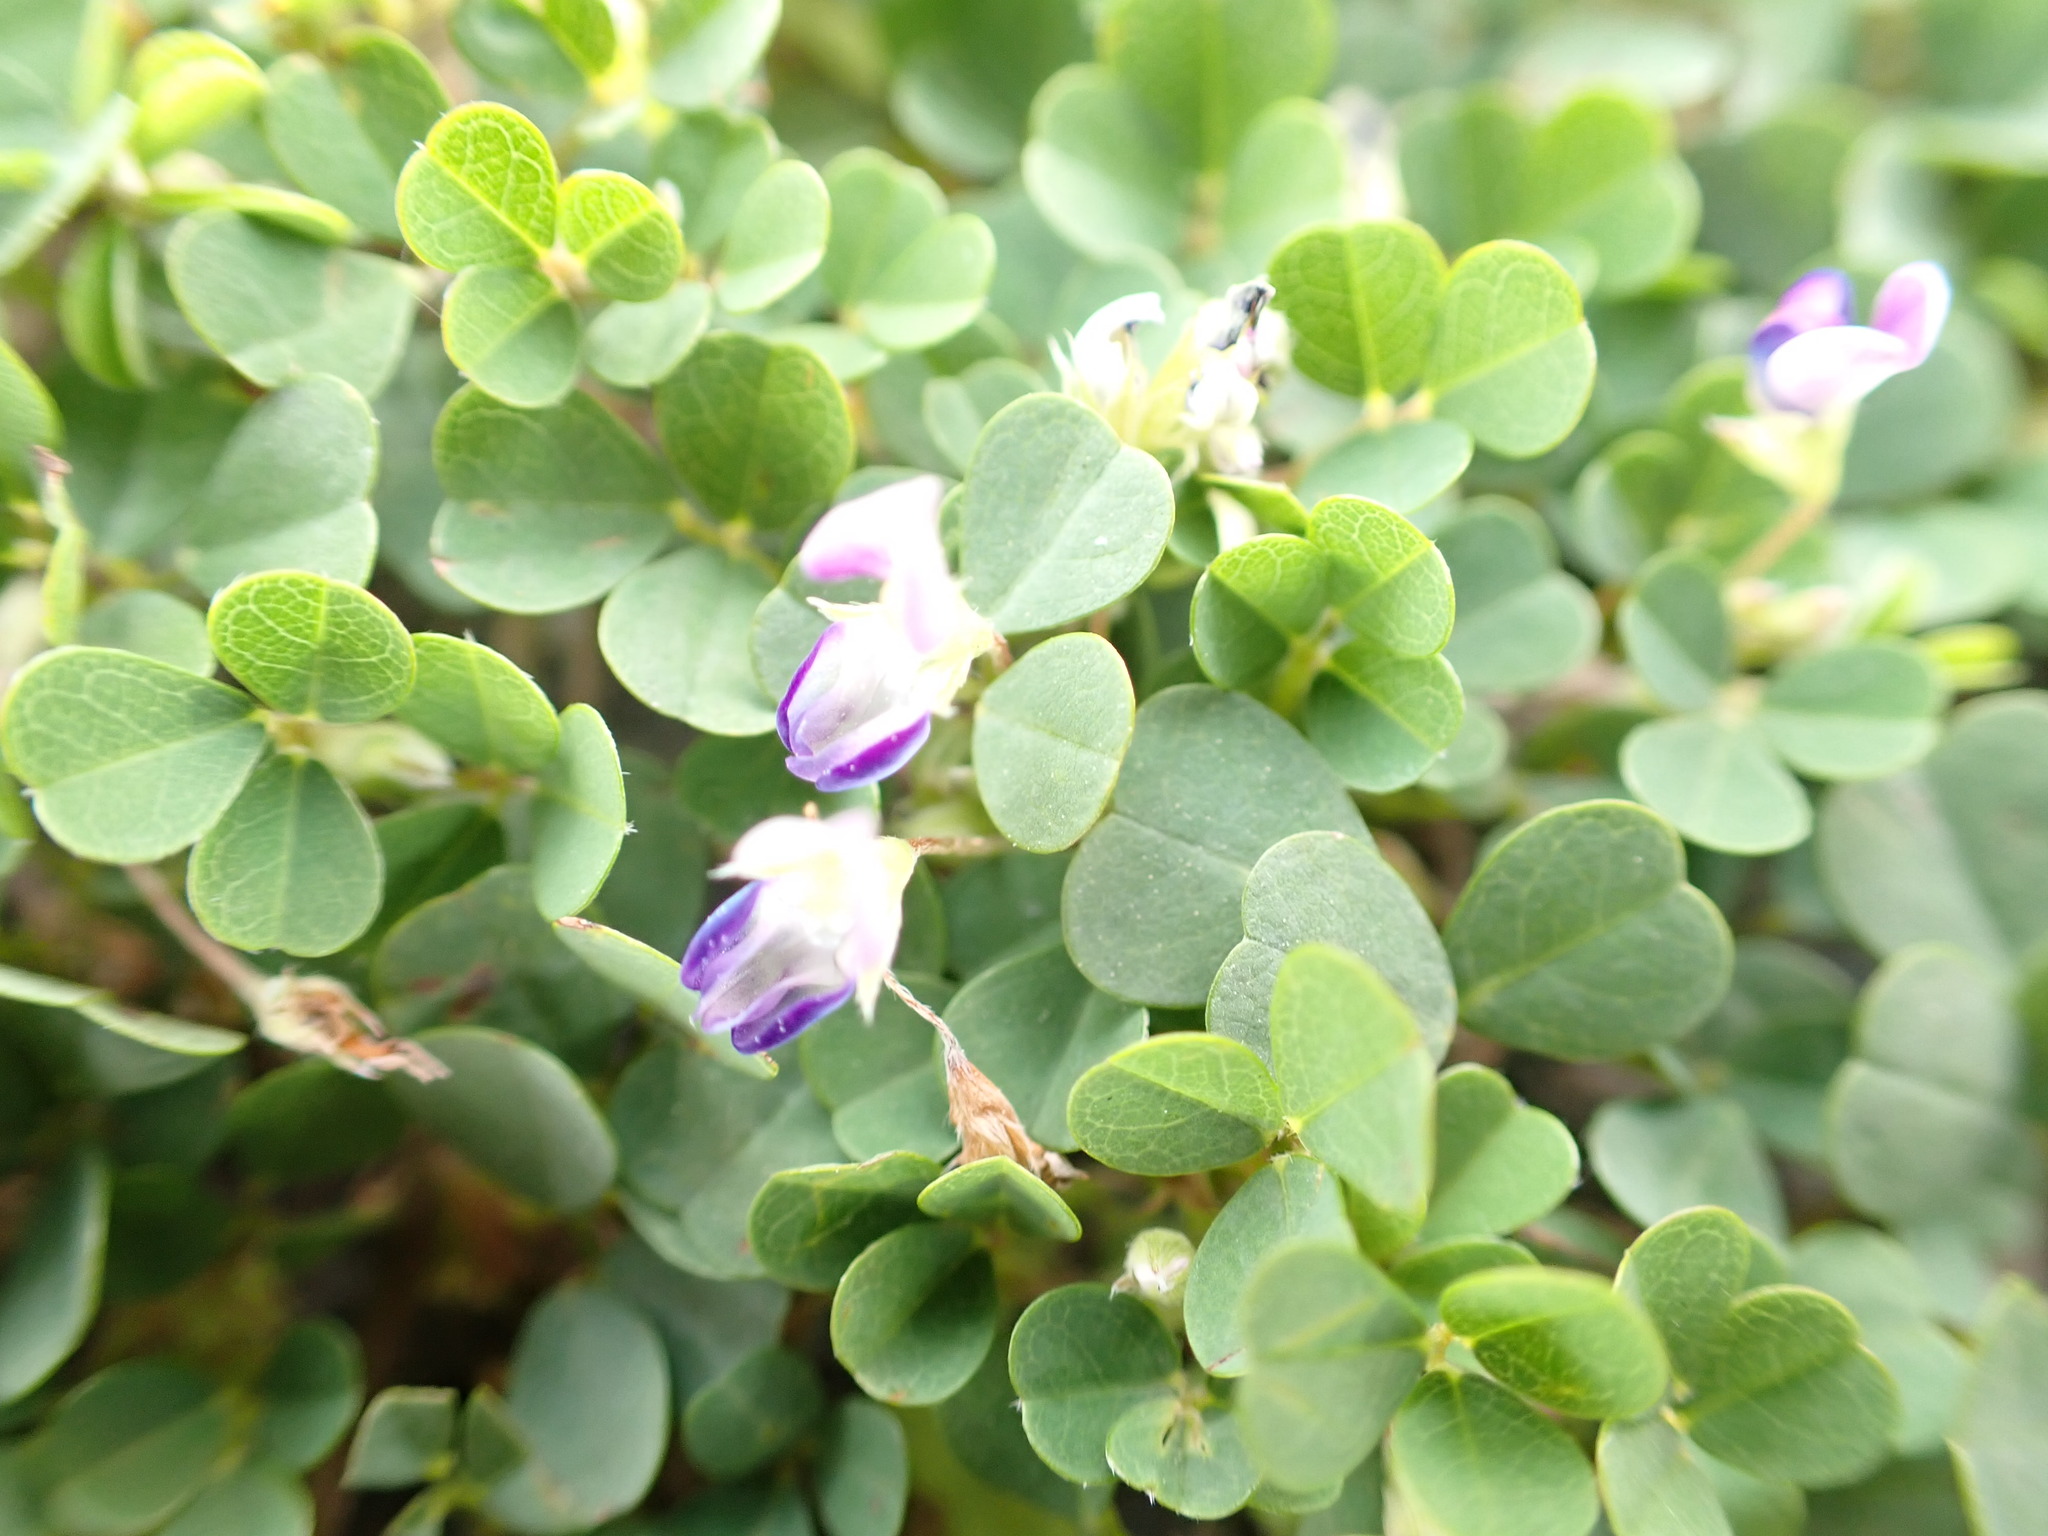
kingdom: Plantae
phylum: Tracheophyta
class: Magnoliopsida
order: Fabales
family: Fabaceae
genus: Grona
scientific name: Grona triflora
